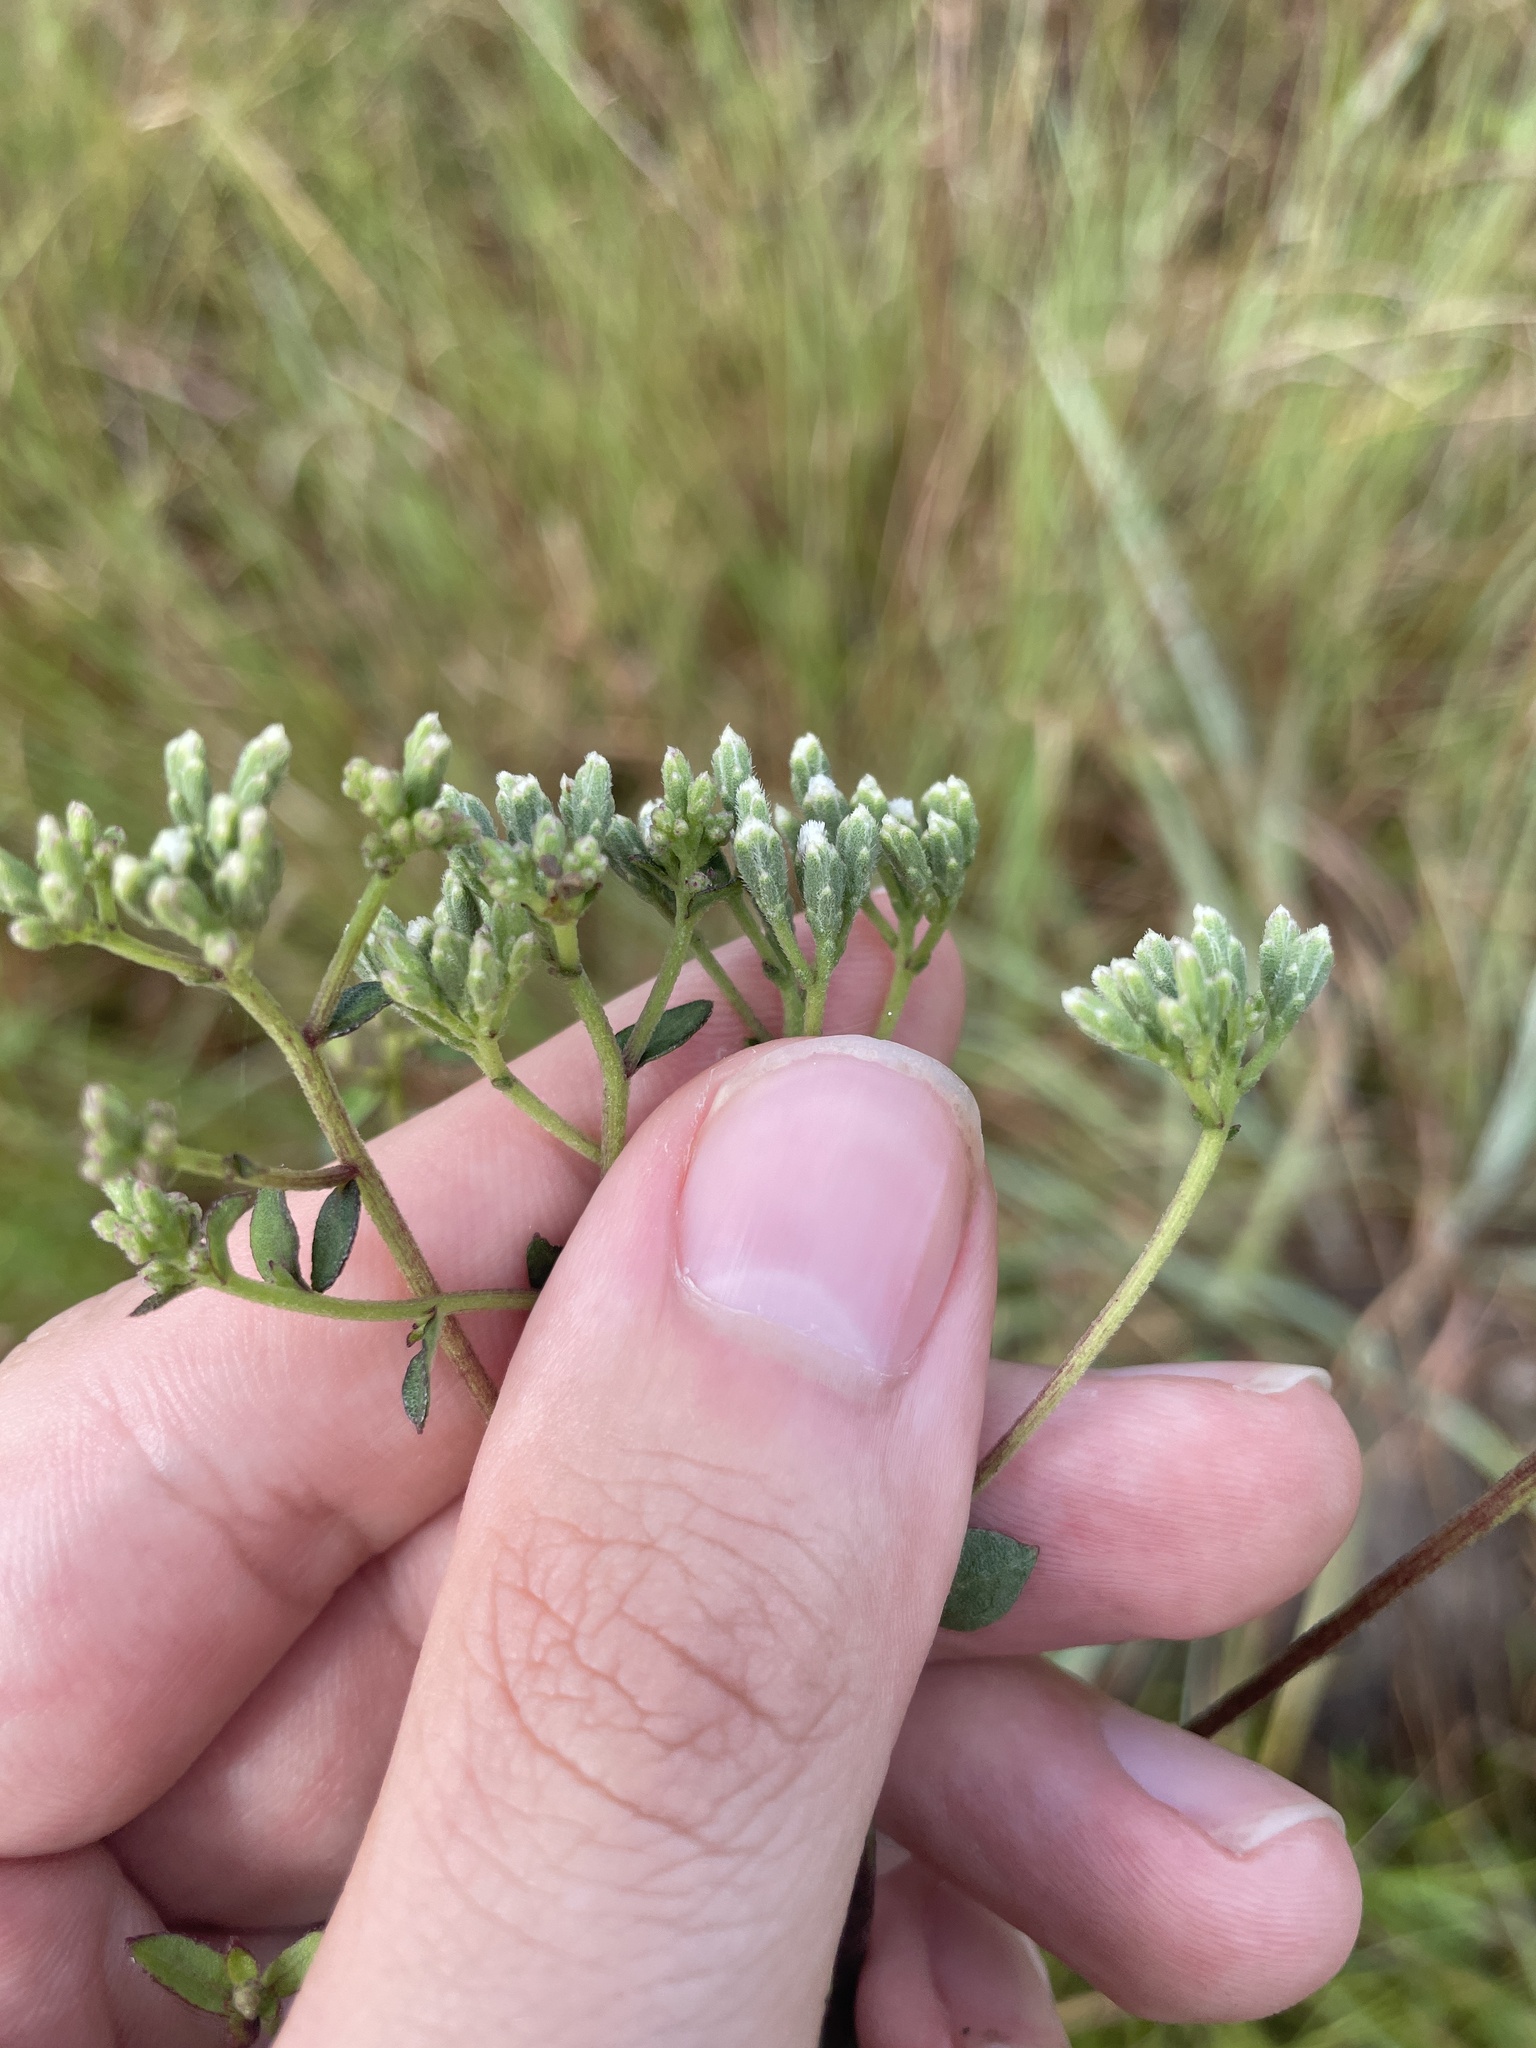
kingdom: Plantae
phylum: Tracheophyta
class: Magnoliopsida
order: Asterales
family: Asteraceae
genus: Eupatorium
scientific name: Eupatorium pilosum
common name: Rough boneset
